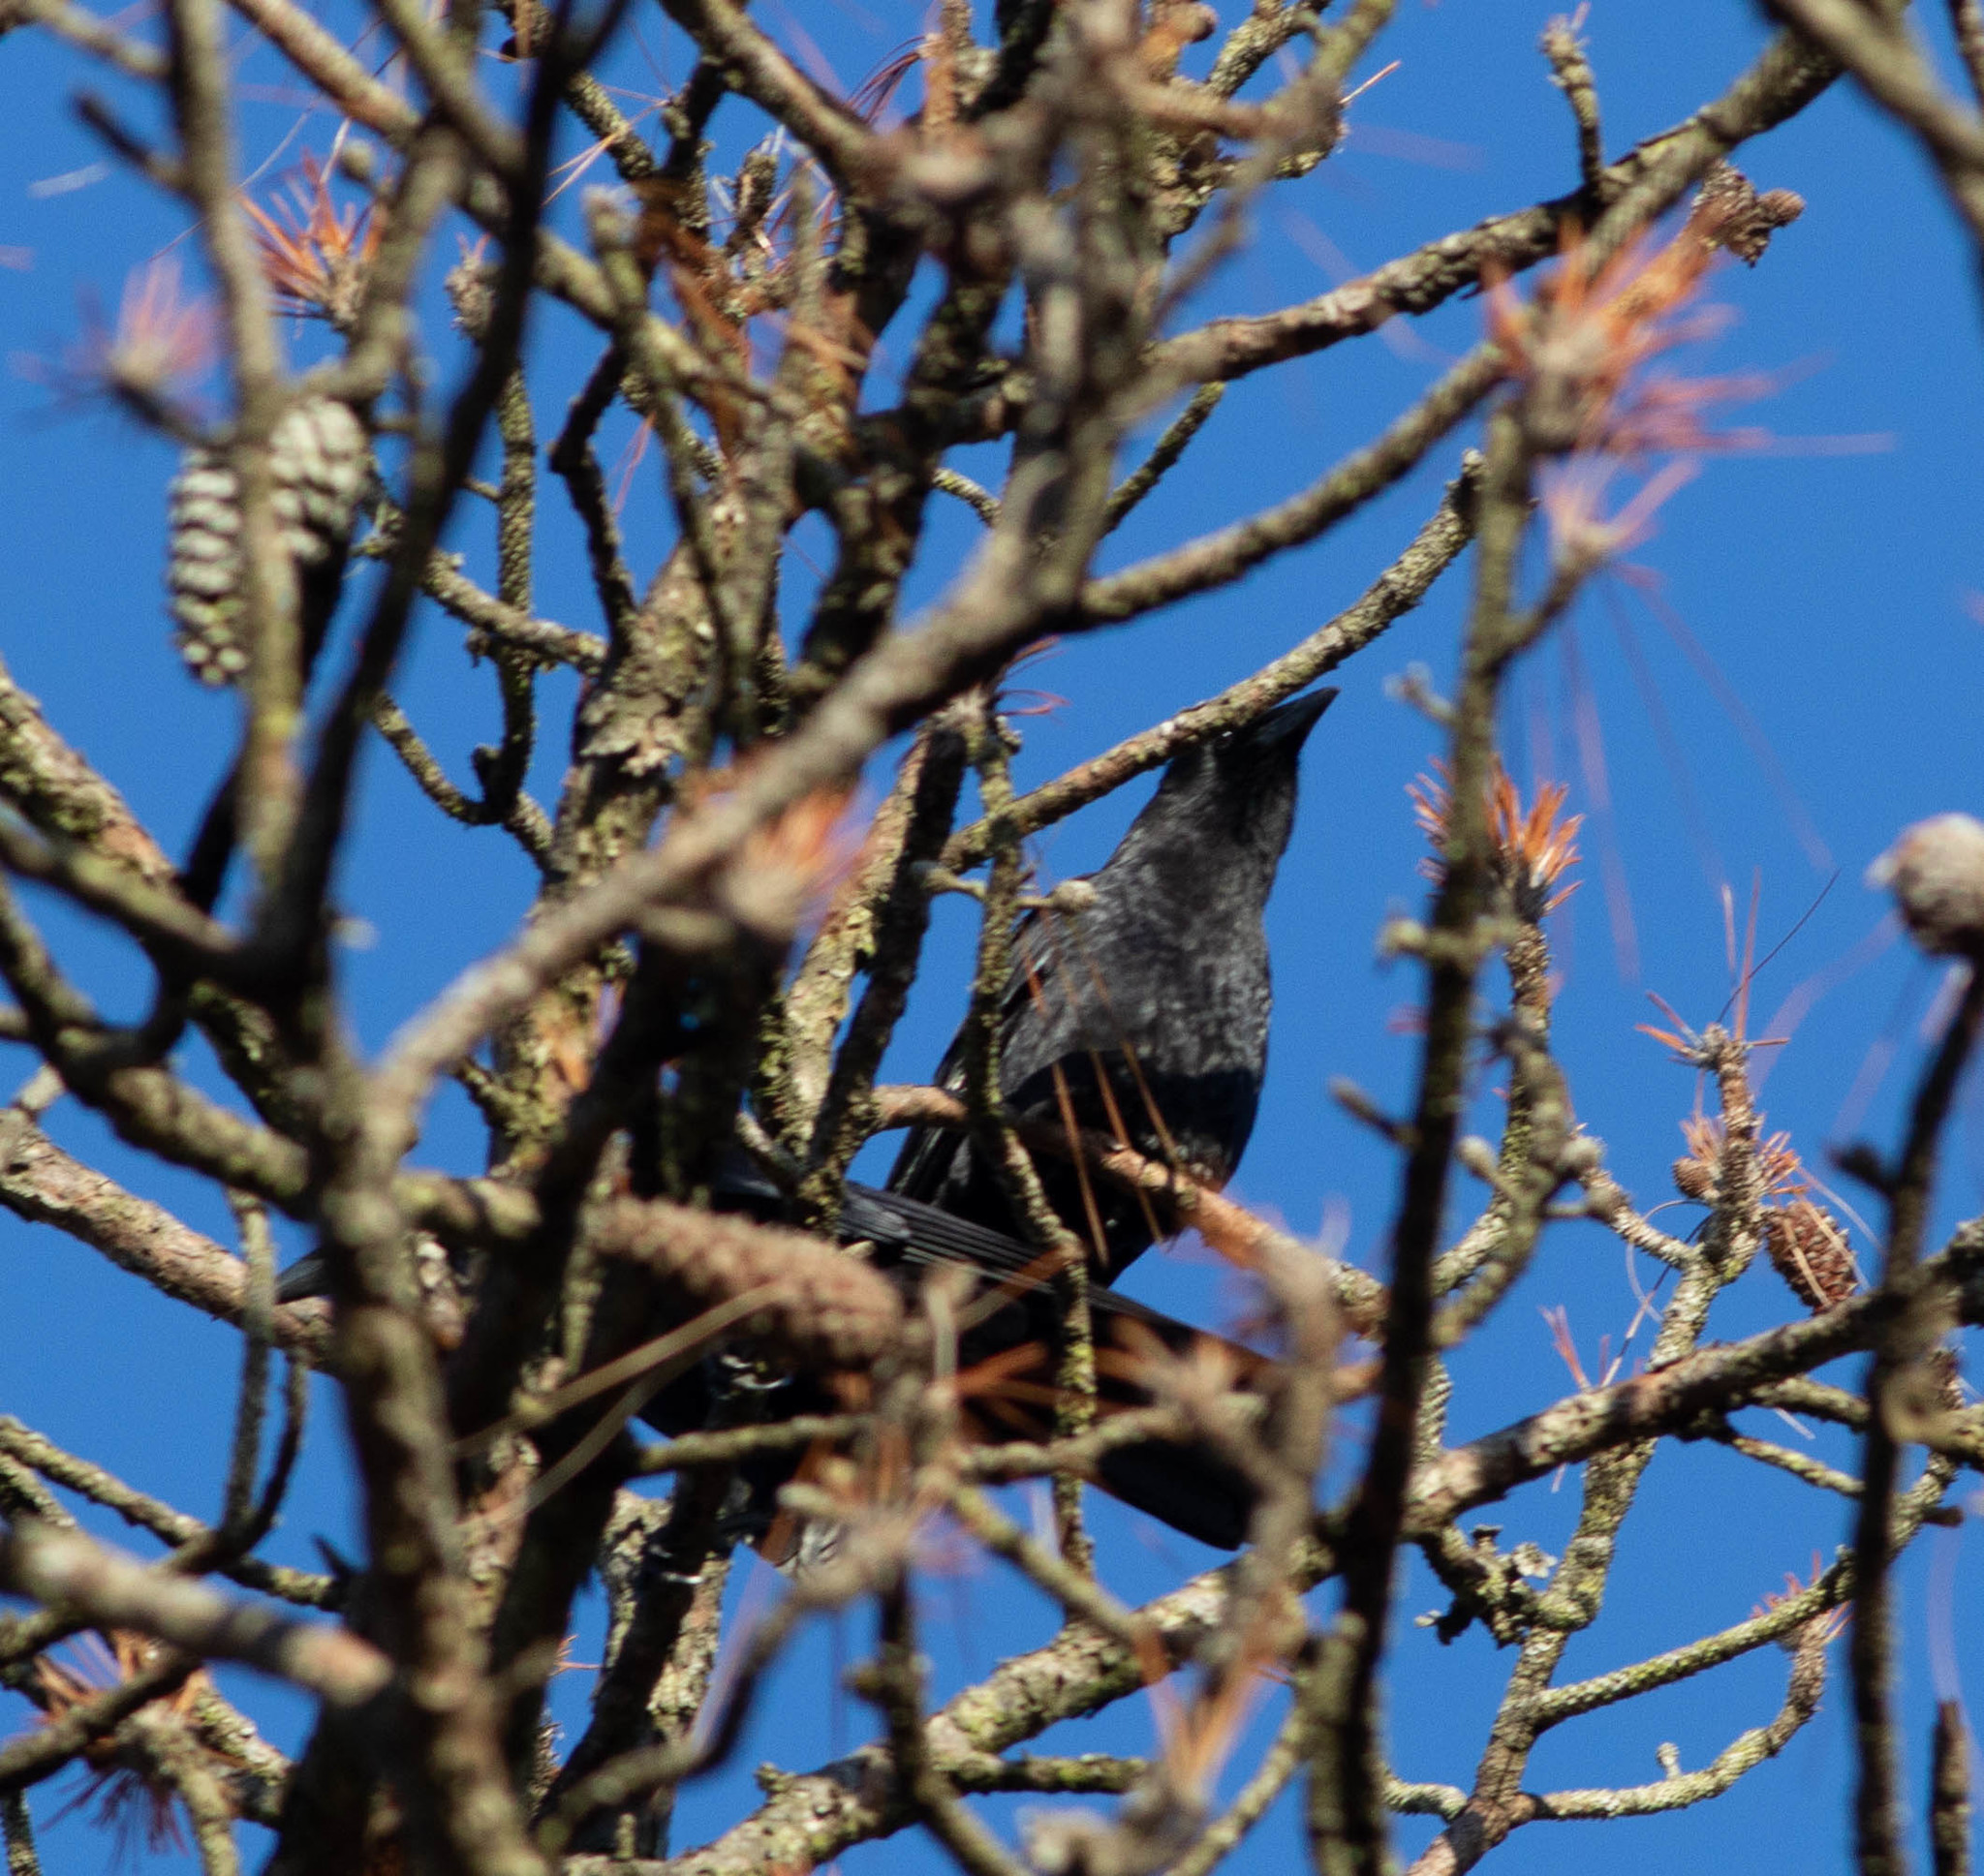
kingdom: Animalia
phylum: Chordata
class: Aves
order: Passeriformes
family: Corvidae
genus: Corvus
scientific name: Corvus brachyrhynchos
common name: American crow
